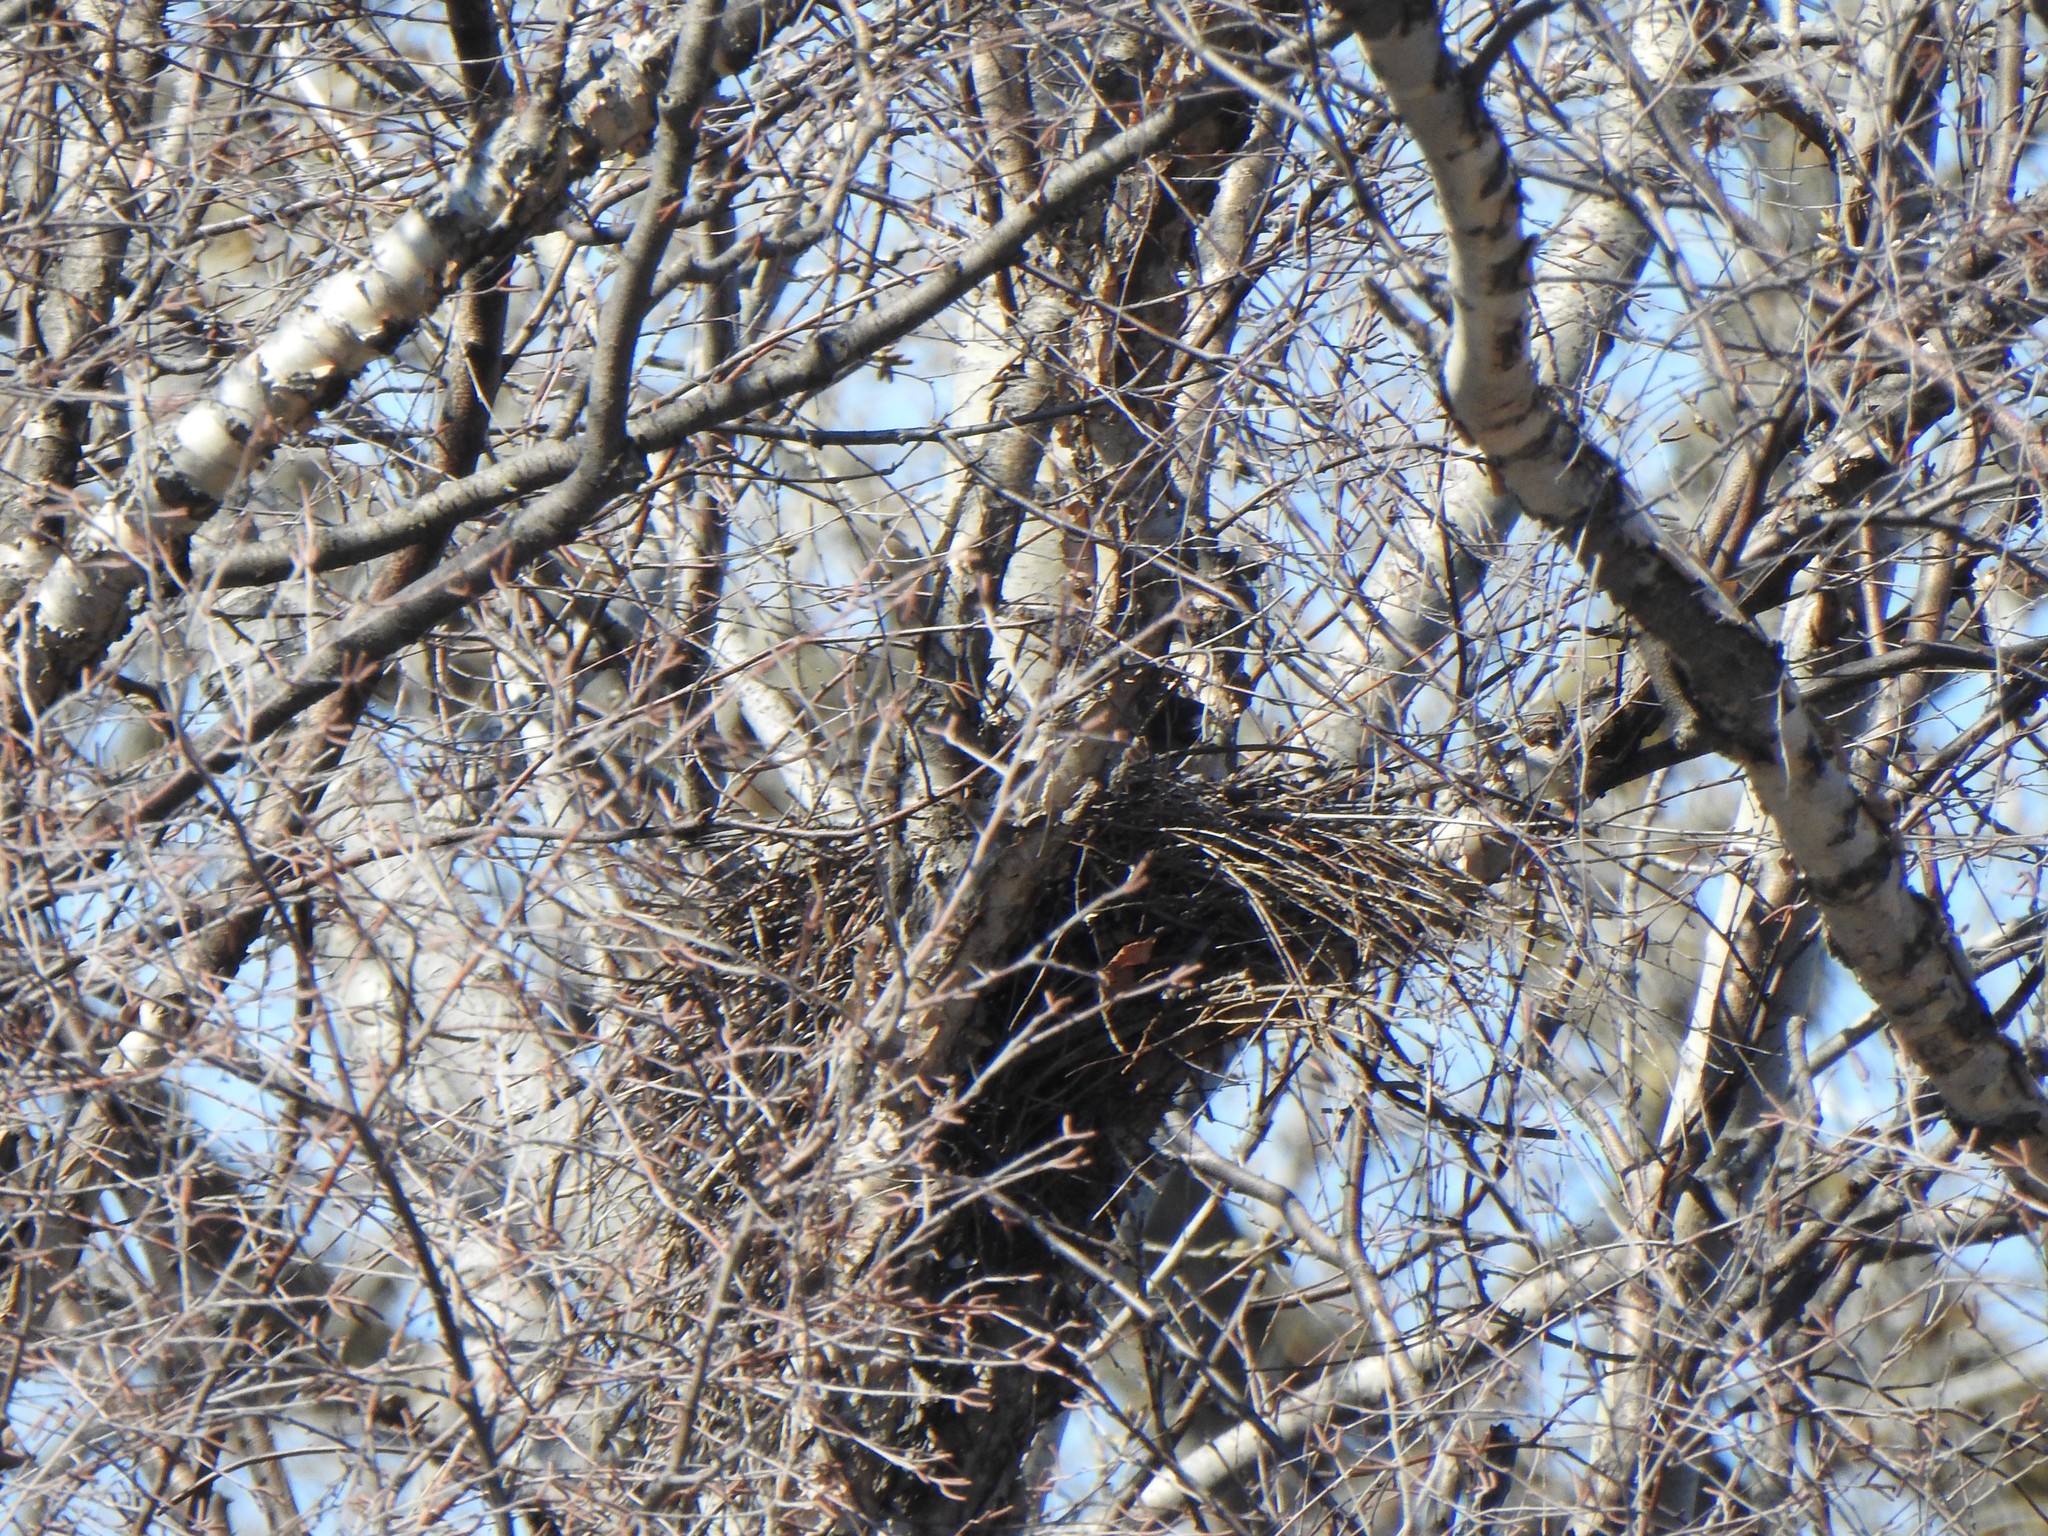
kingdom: Animalia
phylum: Chordata
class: Aves
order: Accipitriformes
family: Accipitridae
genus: Accipiter
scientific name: Accipiter cooperii
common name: Cooper's hawk
